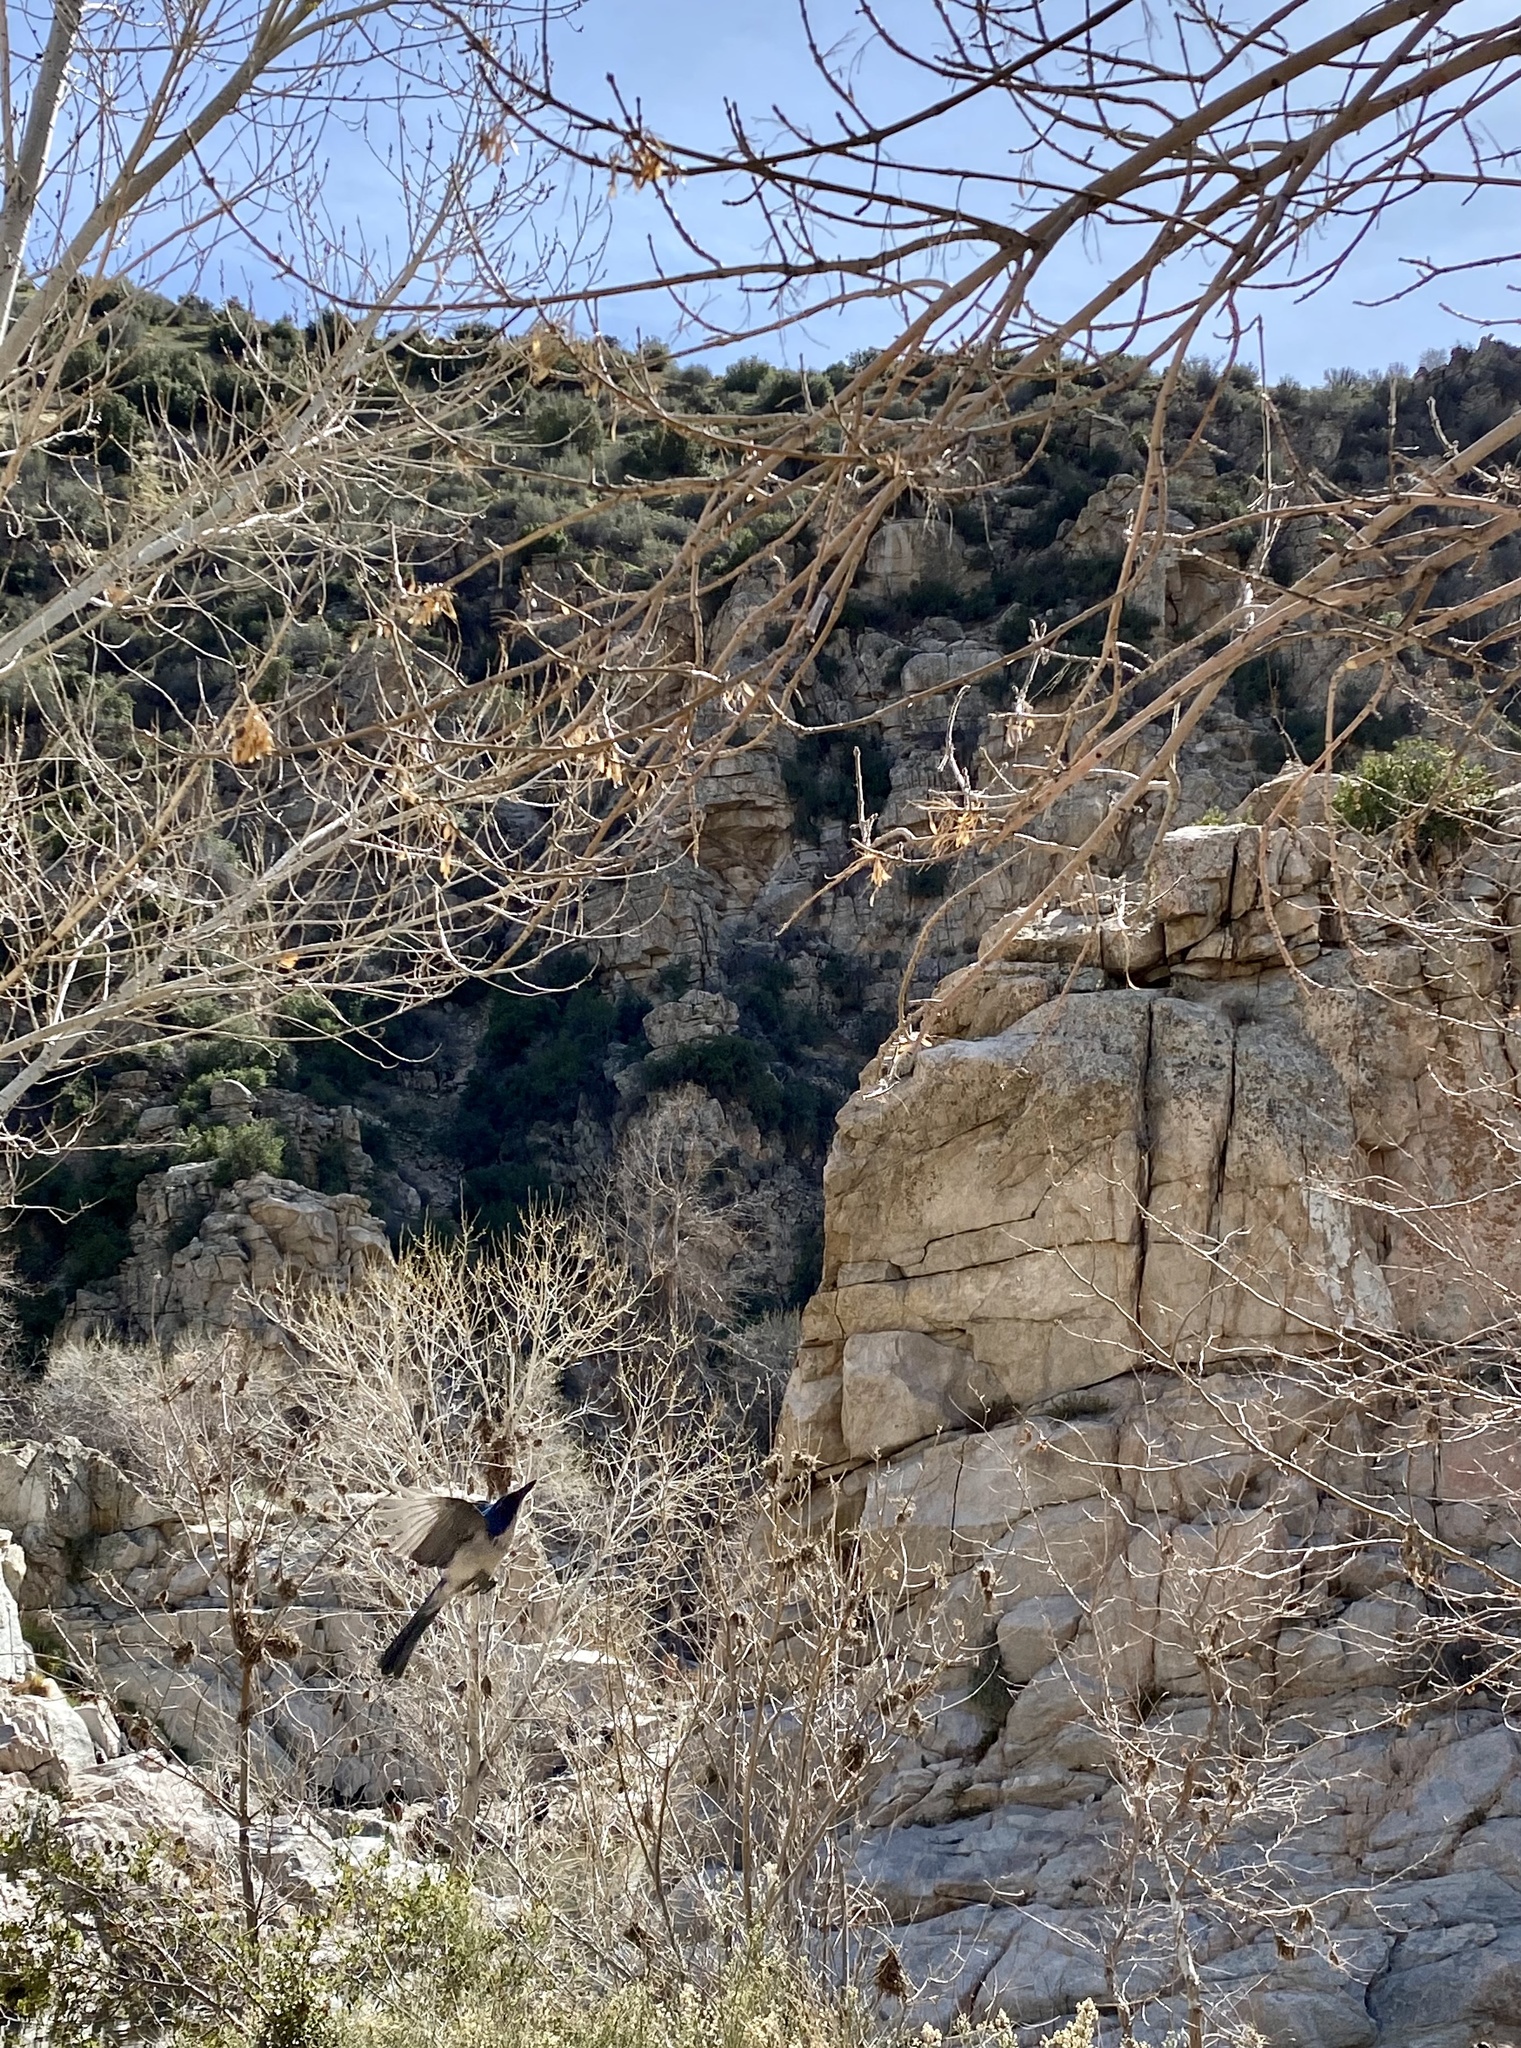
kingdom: Animalia
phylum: Chordata
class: Aves
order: Passeriformes
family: Corvidae
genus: Aphelocoma
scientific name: Aphelocoma californica
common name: California scrub-jay
